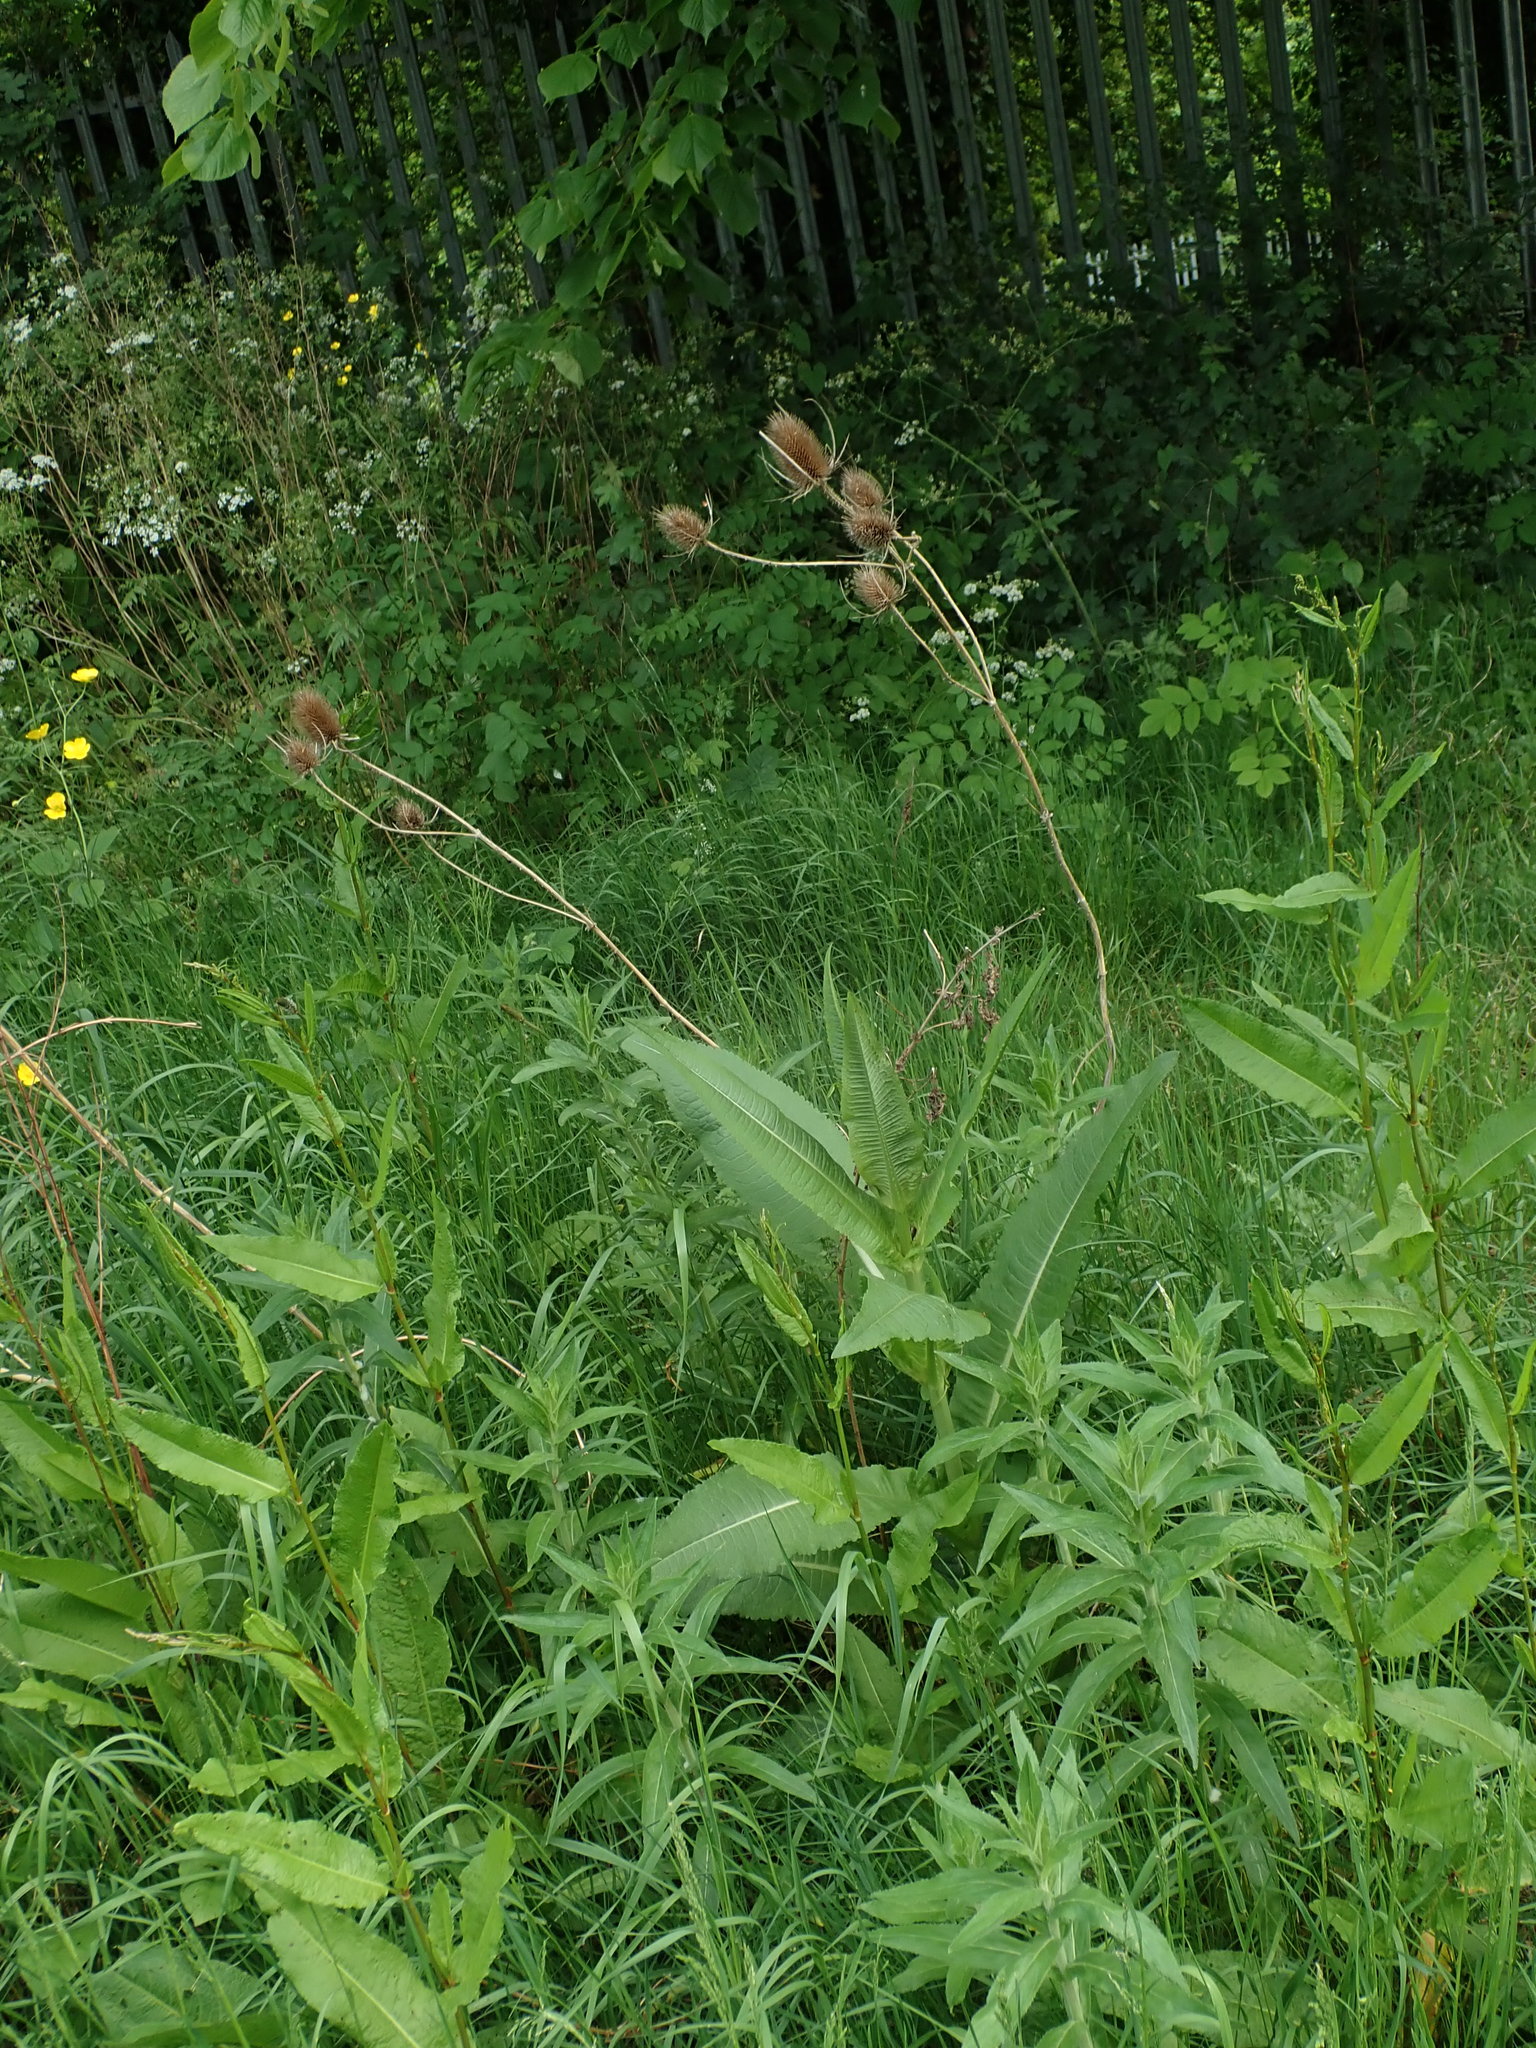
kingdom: Plantae
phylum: Tracheophyta
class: Magnoliopsida
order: Dipsacales
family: Caprifoliaceae
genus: Dipsacus
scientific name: Dipsacus fullonum
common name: Teasel
